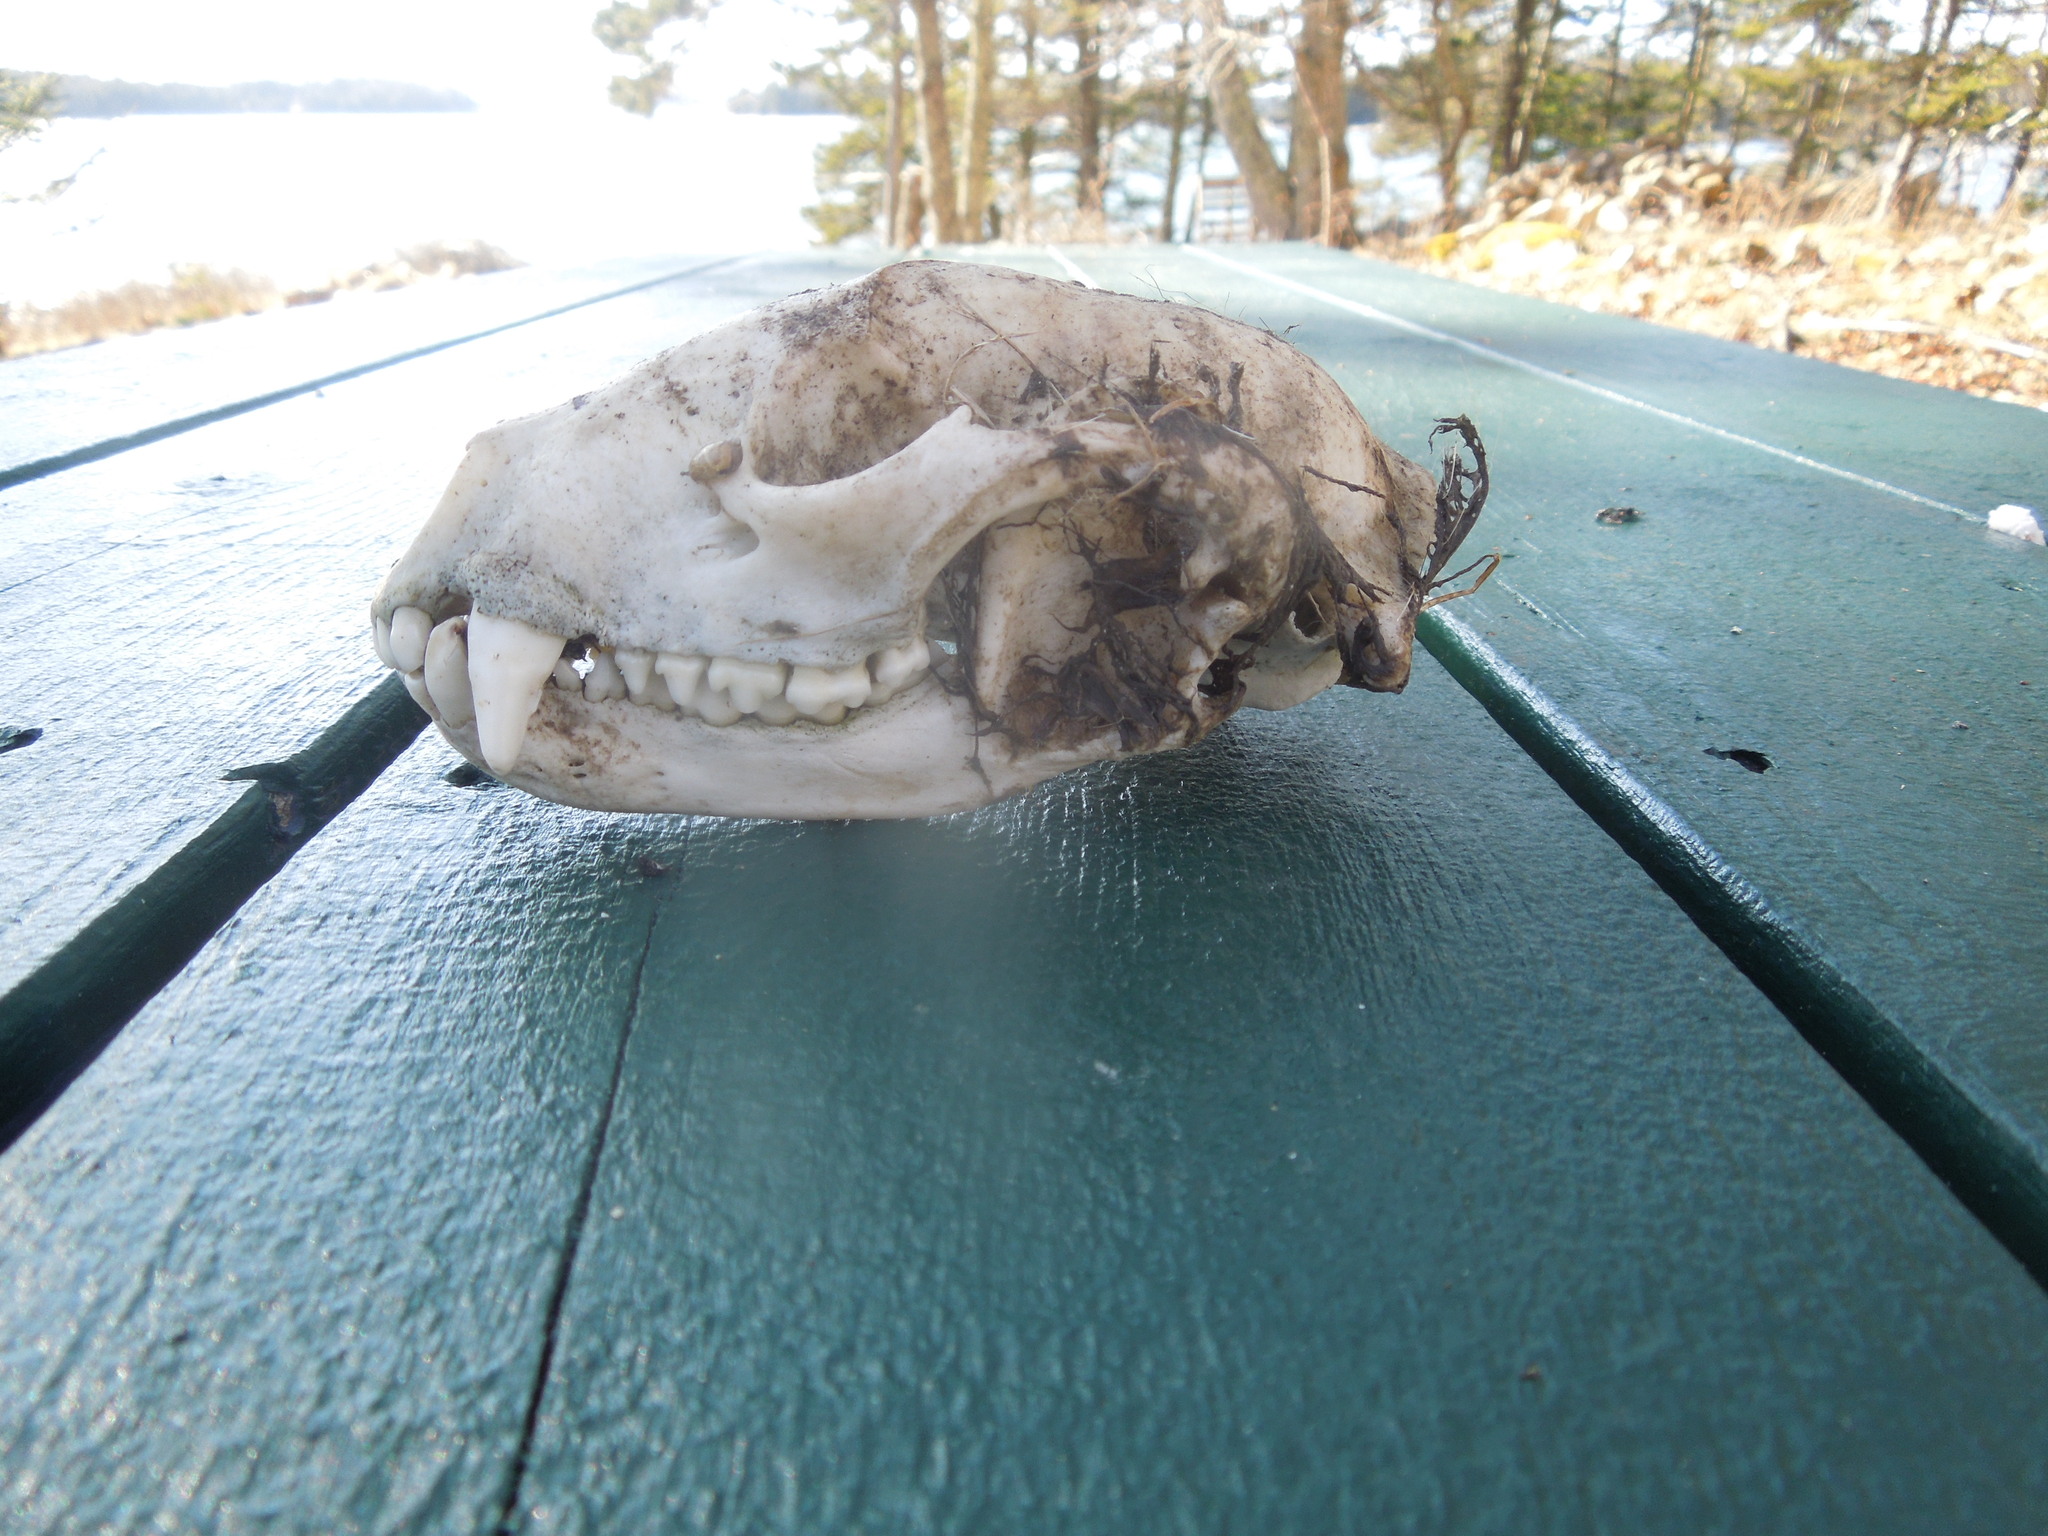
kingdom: Animalia
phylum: Chordata
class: Mammalia
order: Carnivora
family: Procyonidae
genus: Procyon
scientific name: Procyon lotor
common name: Raccoon
